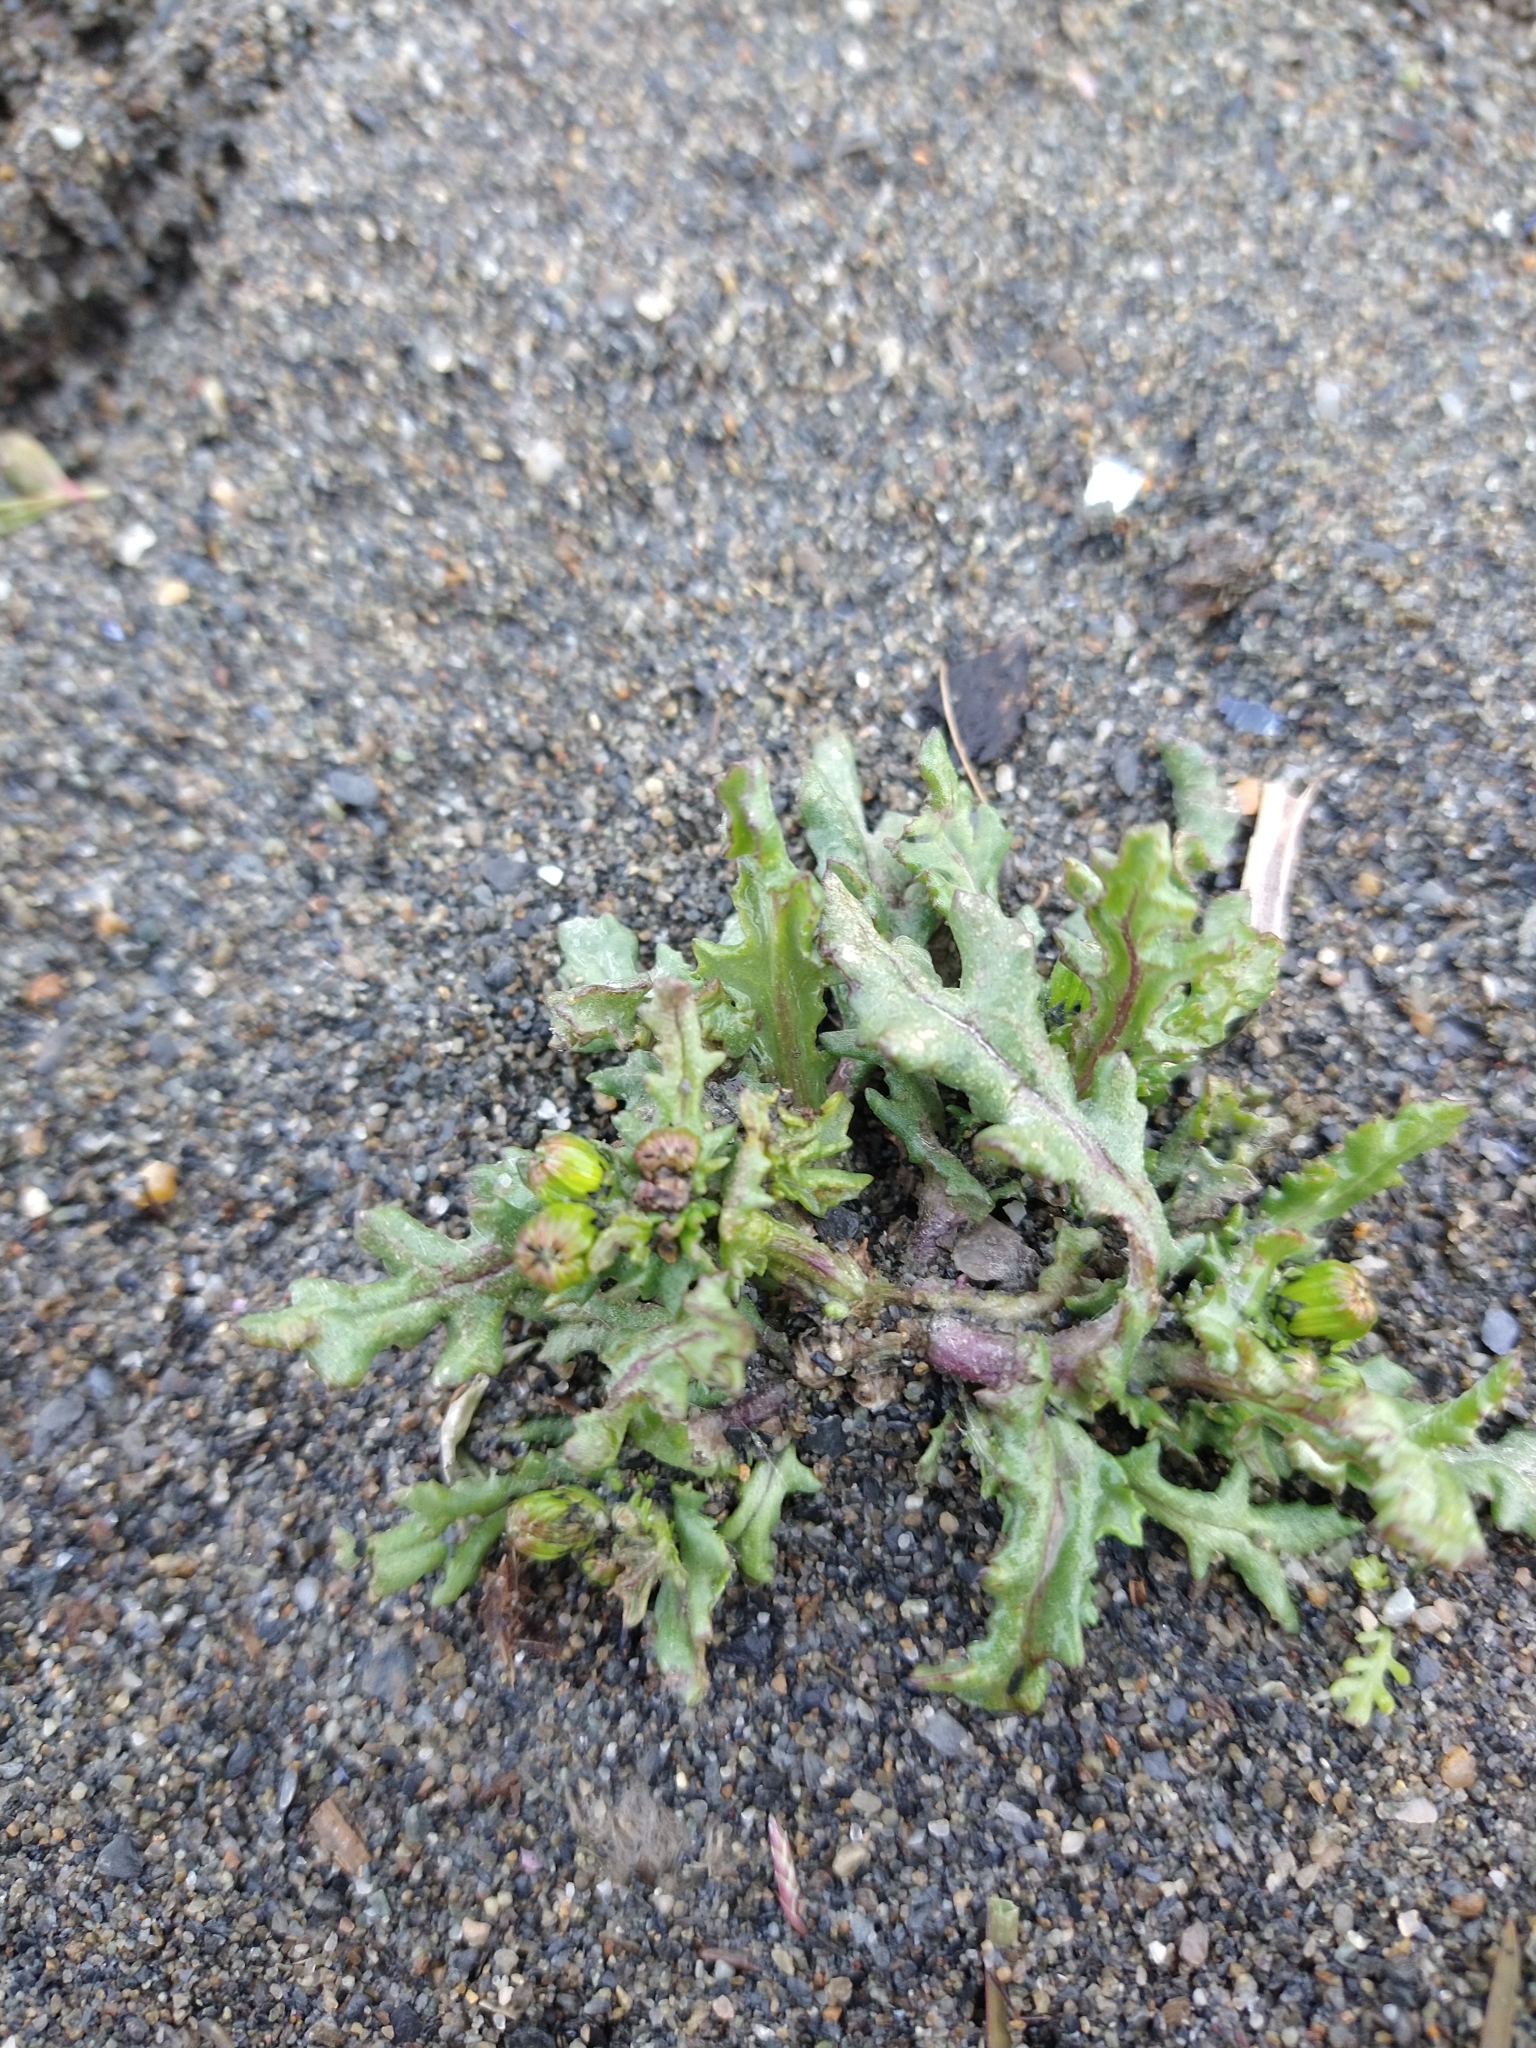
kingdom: Plantae
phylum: Tracheophyta
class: Magnoliopsida
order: Asterales
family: Asteraceae
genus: Senecio
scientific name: Senecio vulgaris
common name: Old-man-in-the-spring
